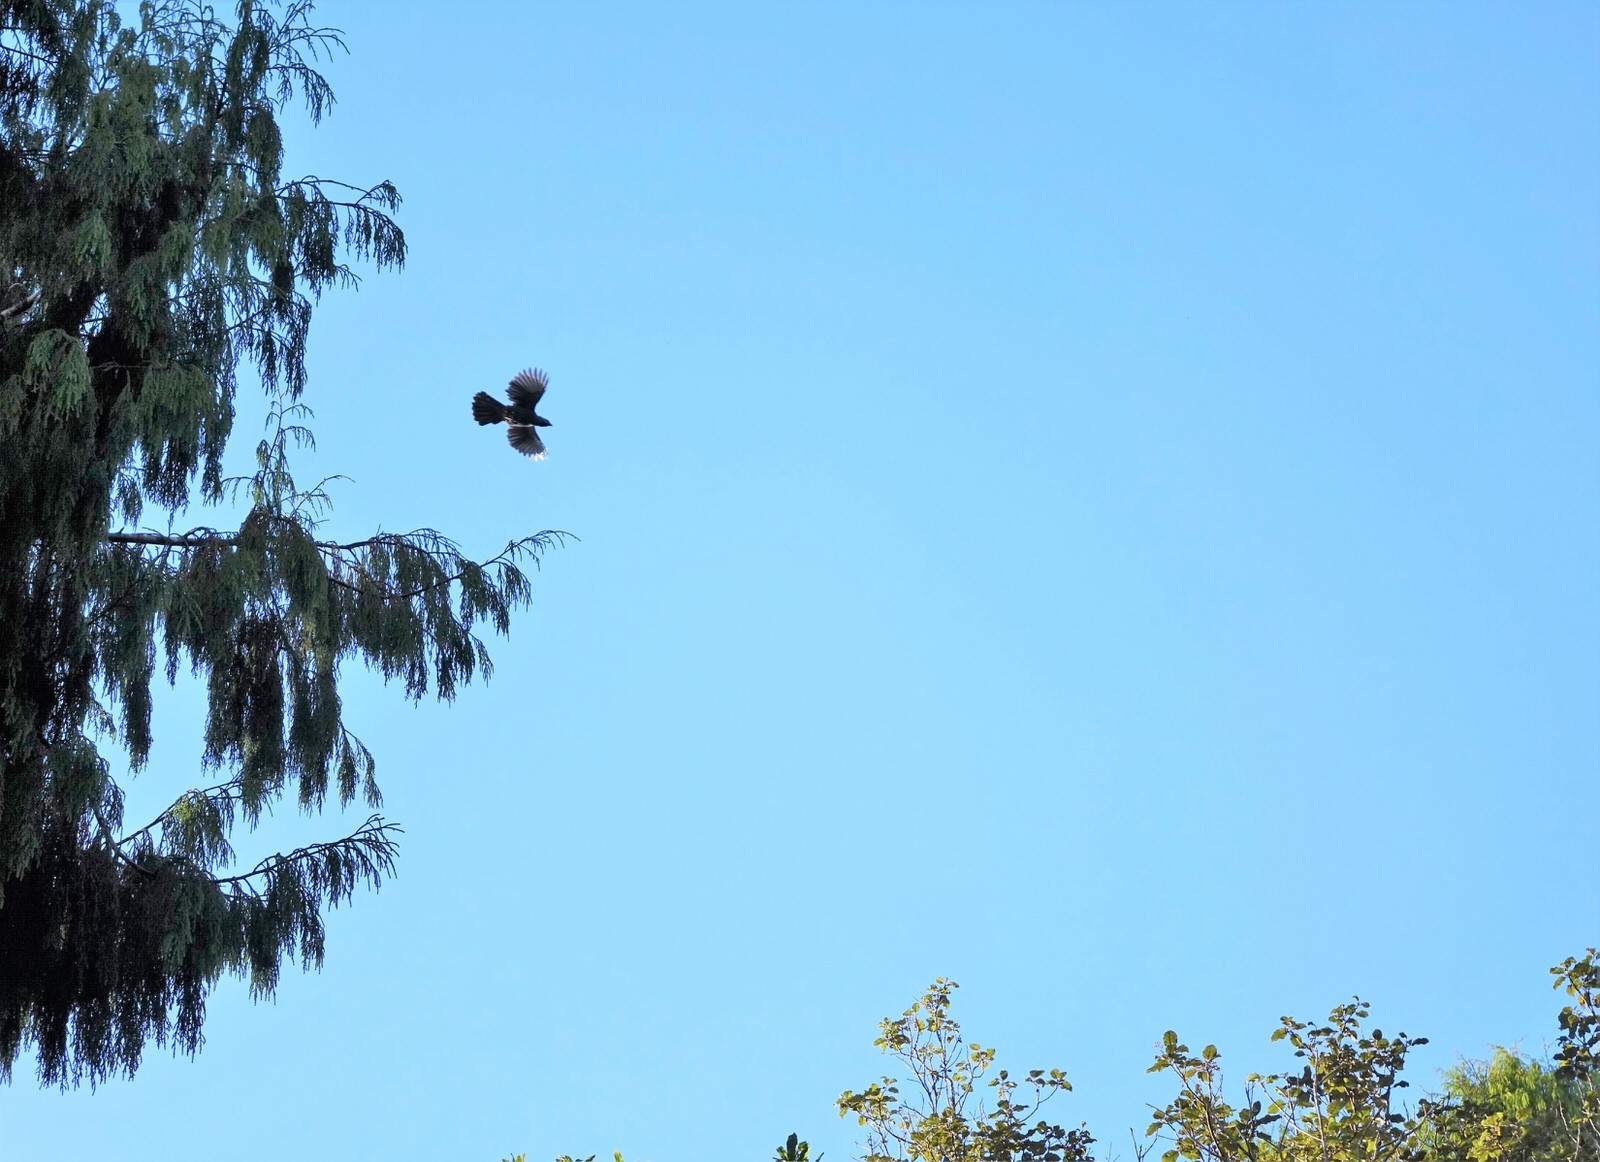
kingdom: Animalia
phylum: Chordata
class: Aves
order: Passeriformes
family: Callaeatidae
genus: Callaeas
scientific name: Callaeas cinereus
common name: South island kokako
